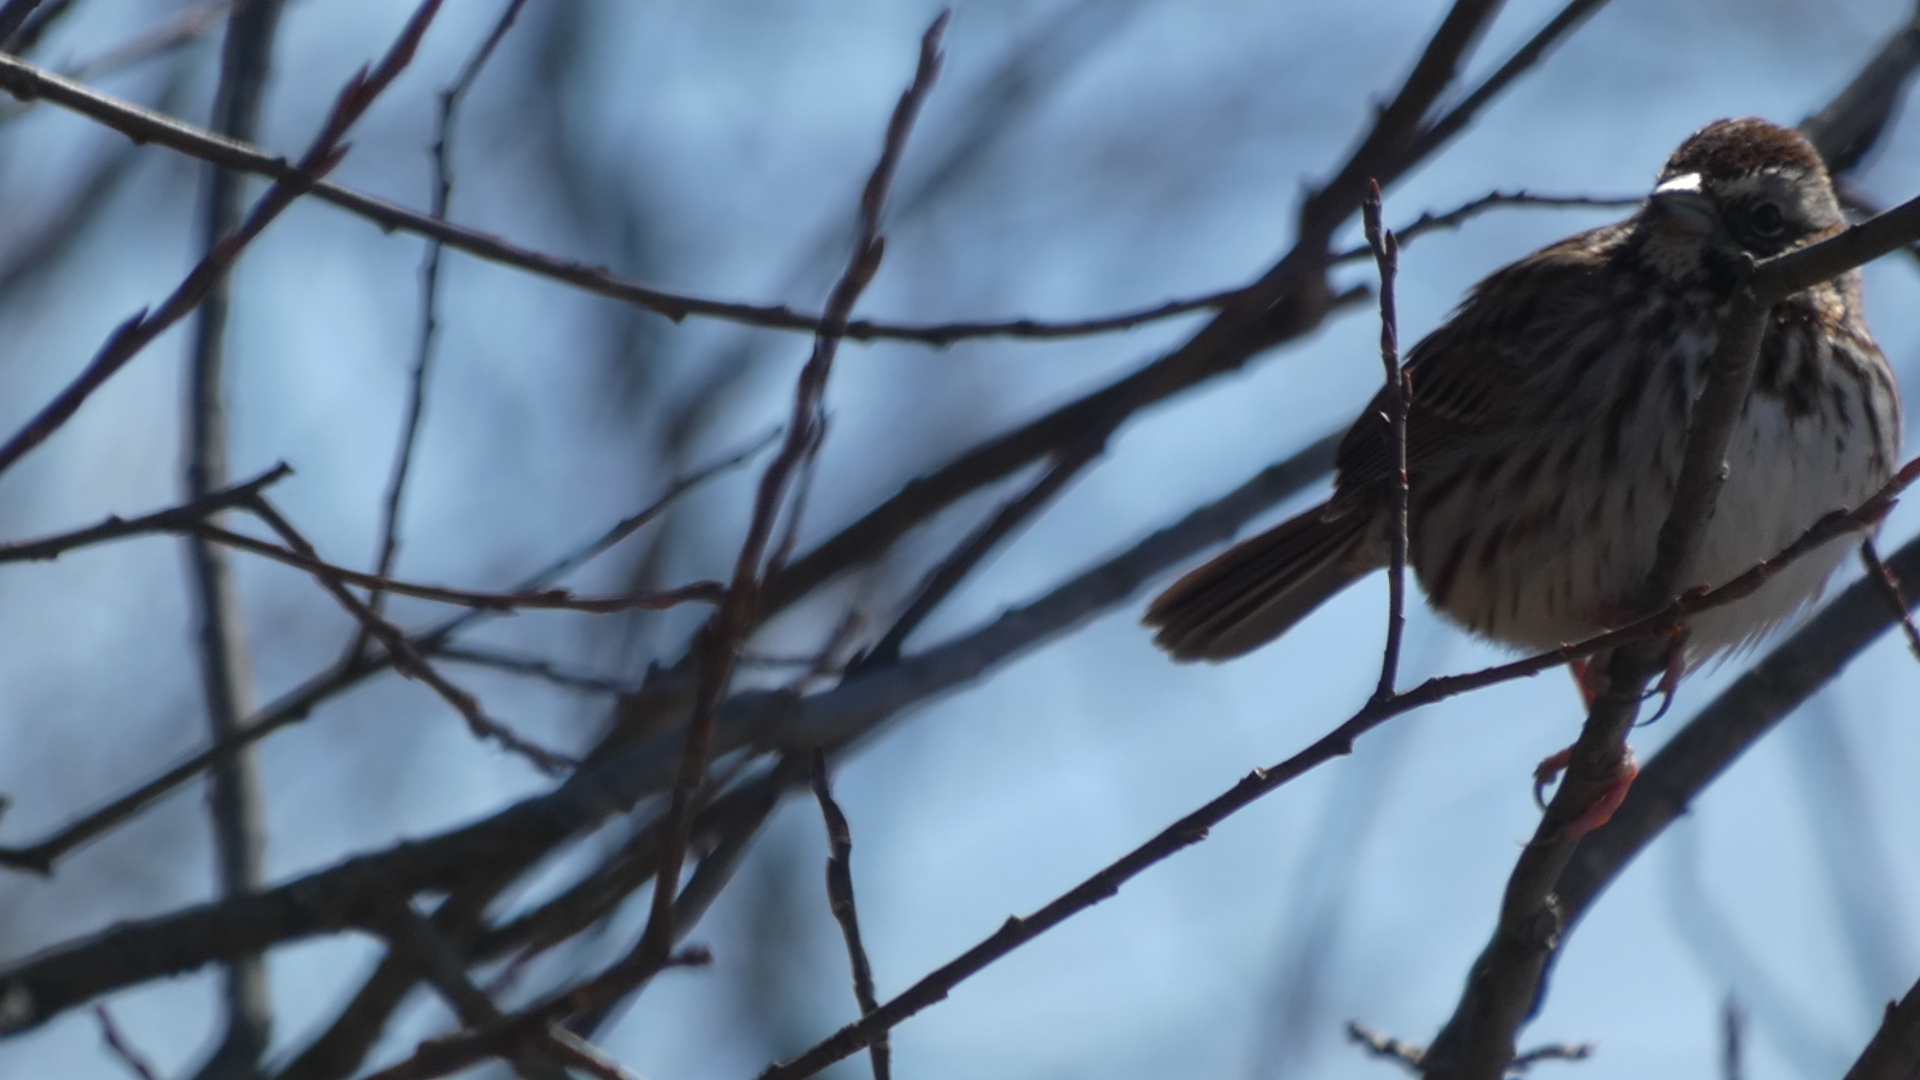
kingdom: Animalia
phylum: Chordata
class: Aves
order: Passeriformes
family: Passerellidae
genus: Melospiza
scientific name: Melospiza melodia
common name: Song sparrow
